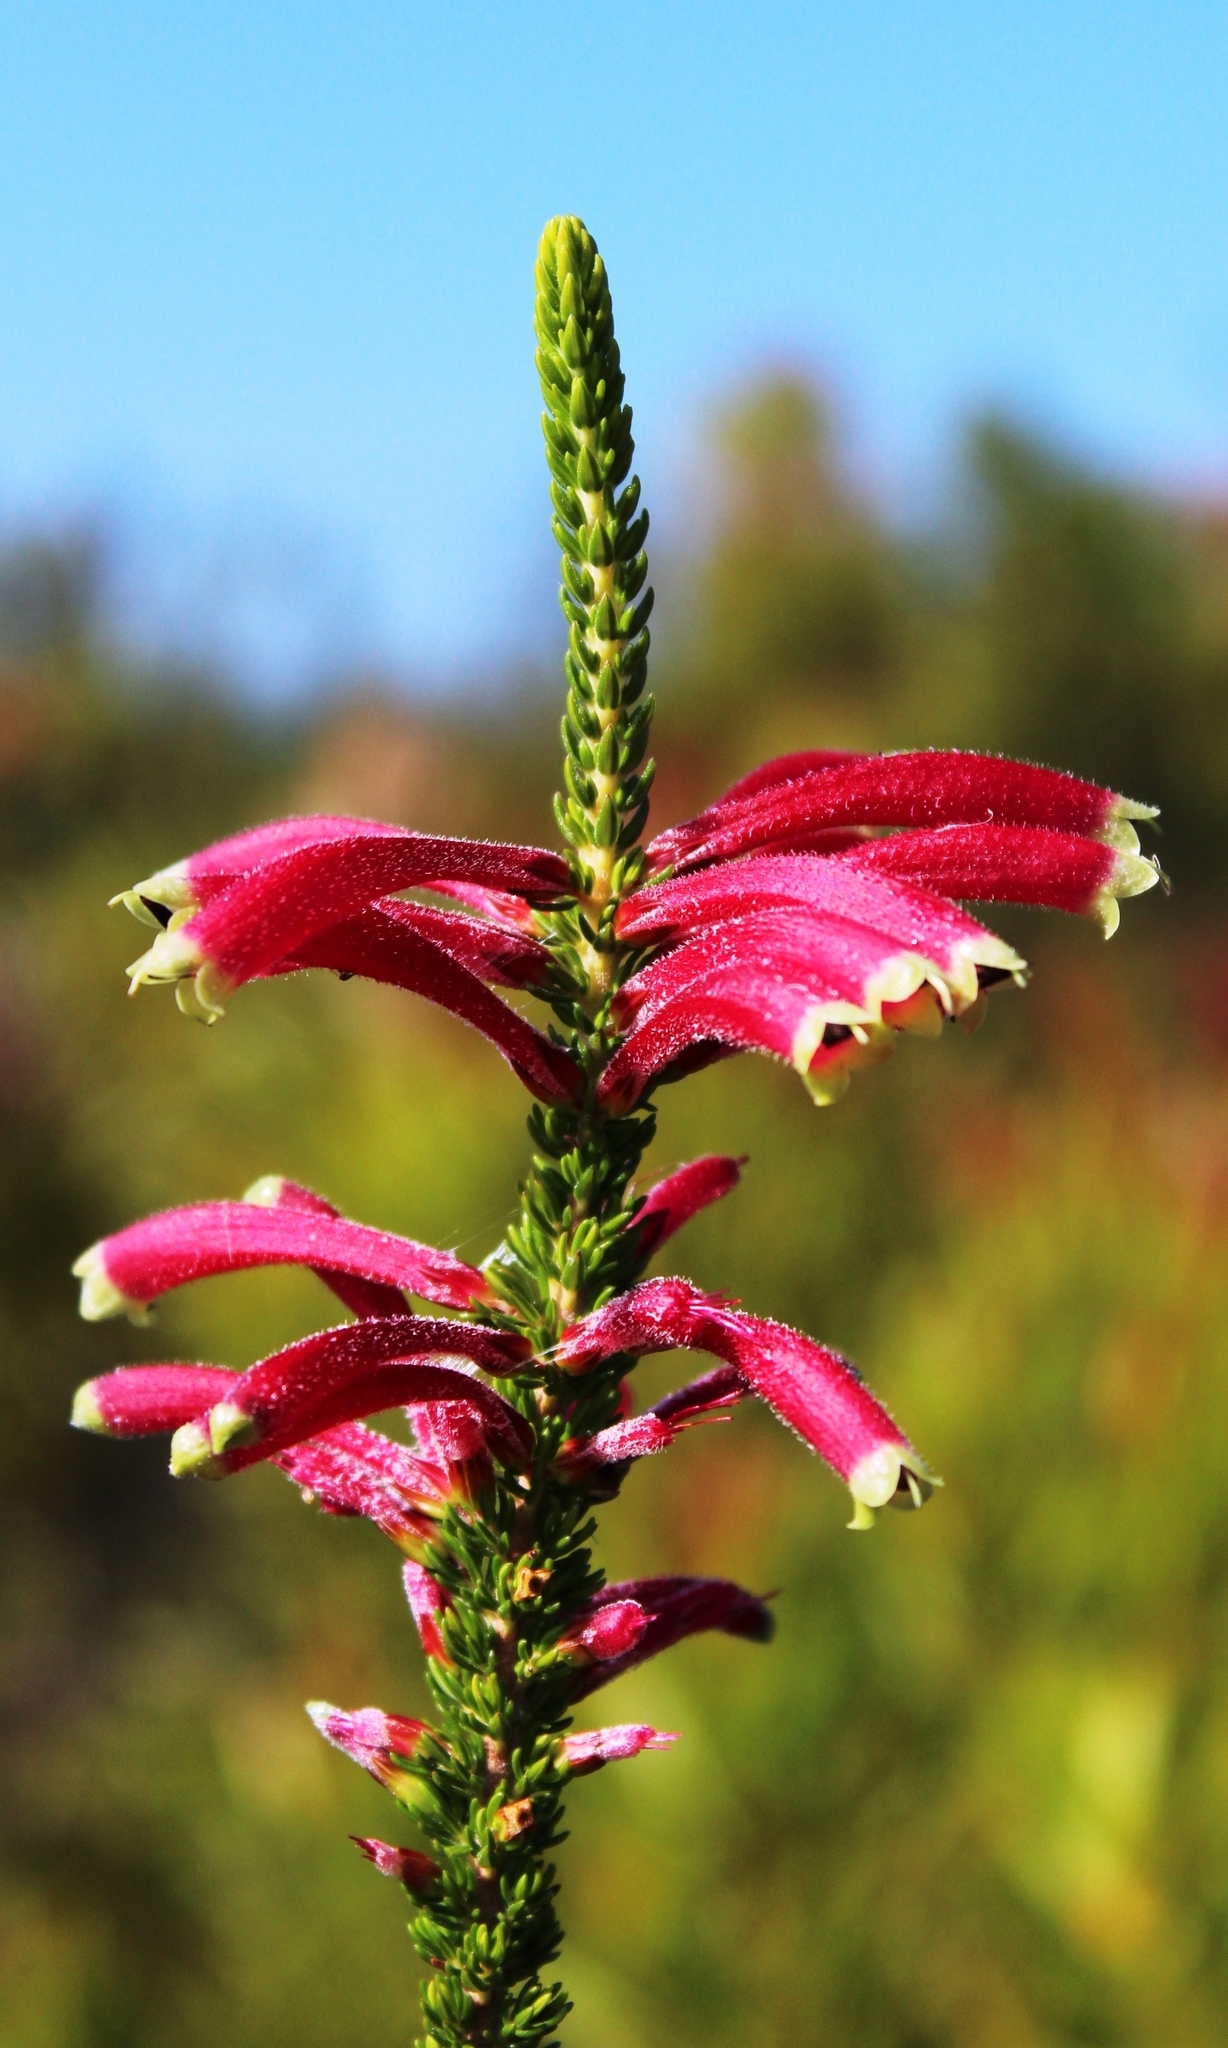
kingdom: Plantae
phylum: Tracheophyta
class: Magnoliopsida
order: Ericales
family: Ericaceae
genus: Erica
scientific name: Erica densifolia
